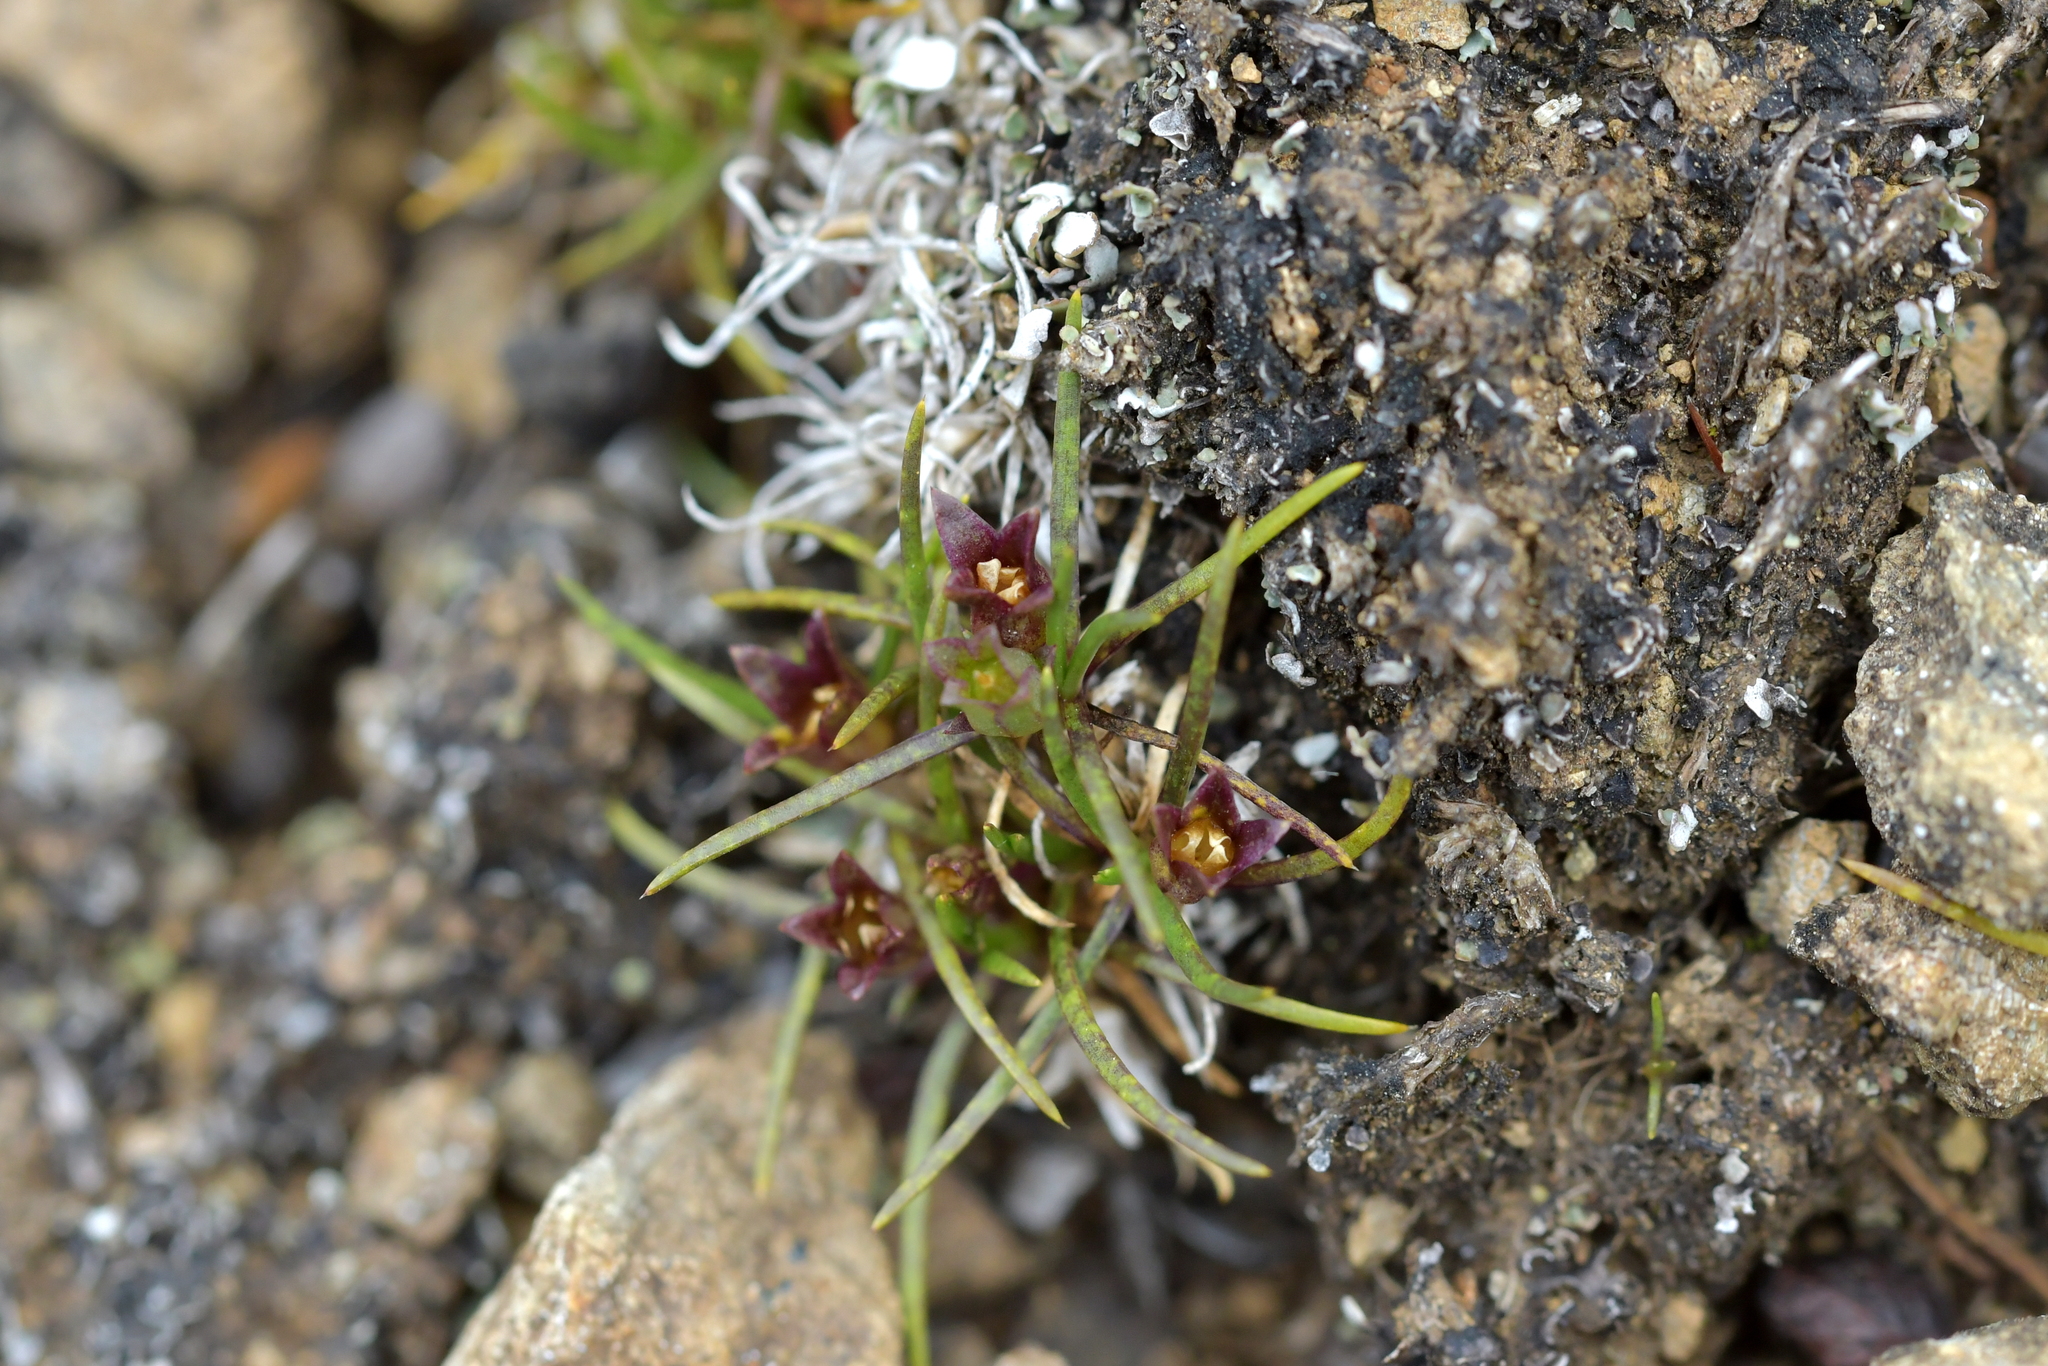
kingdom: Plantae
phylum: Tracheophyta
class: Magnoliopsida
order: Caryophyllales
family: Caryophyllaceae
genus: Colobanthus
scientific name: Colobanthus wallii
